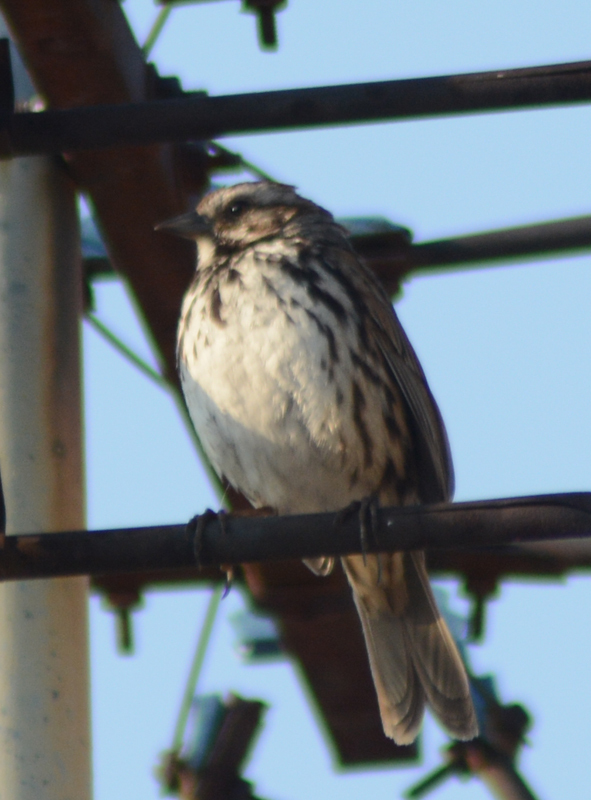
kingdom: Animalia
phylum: Chordata
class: Aves
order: Passeriformes
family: Passerellidae
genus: Melospiza
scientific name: Melospiza melodia
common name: Song sparrow
